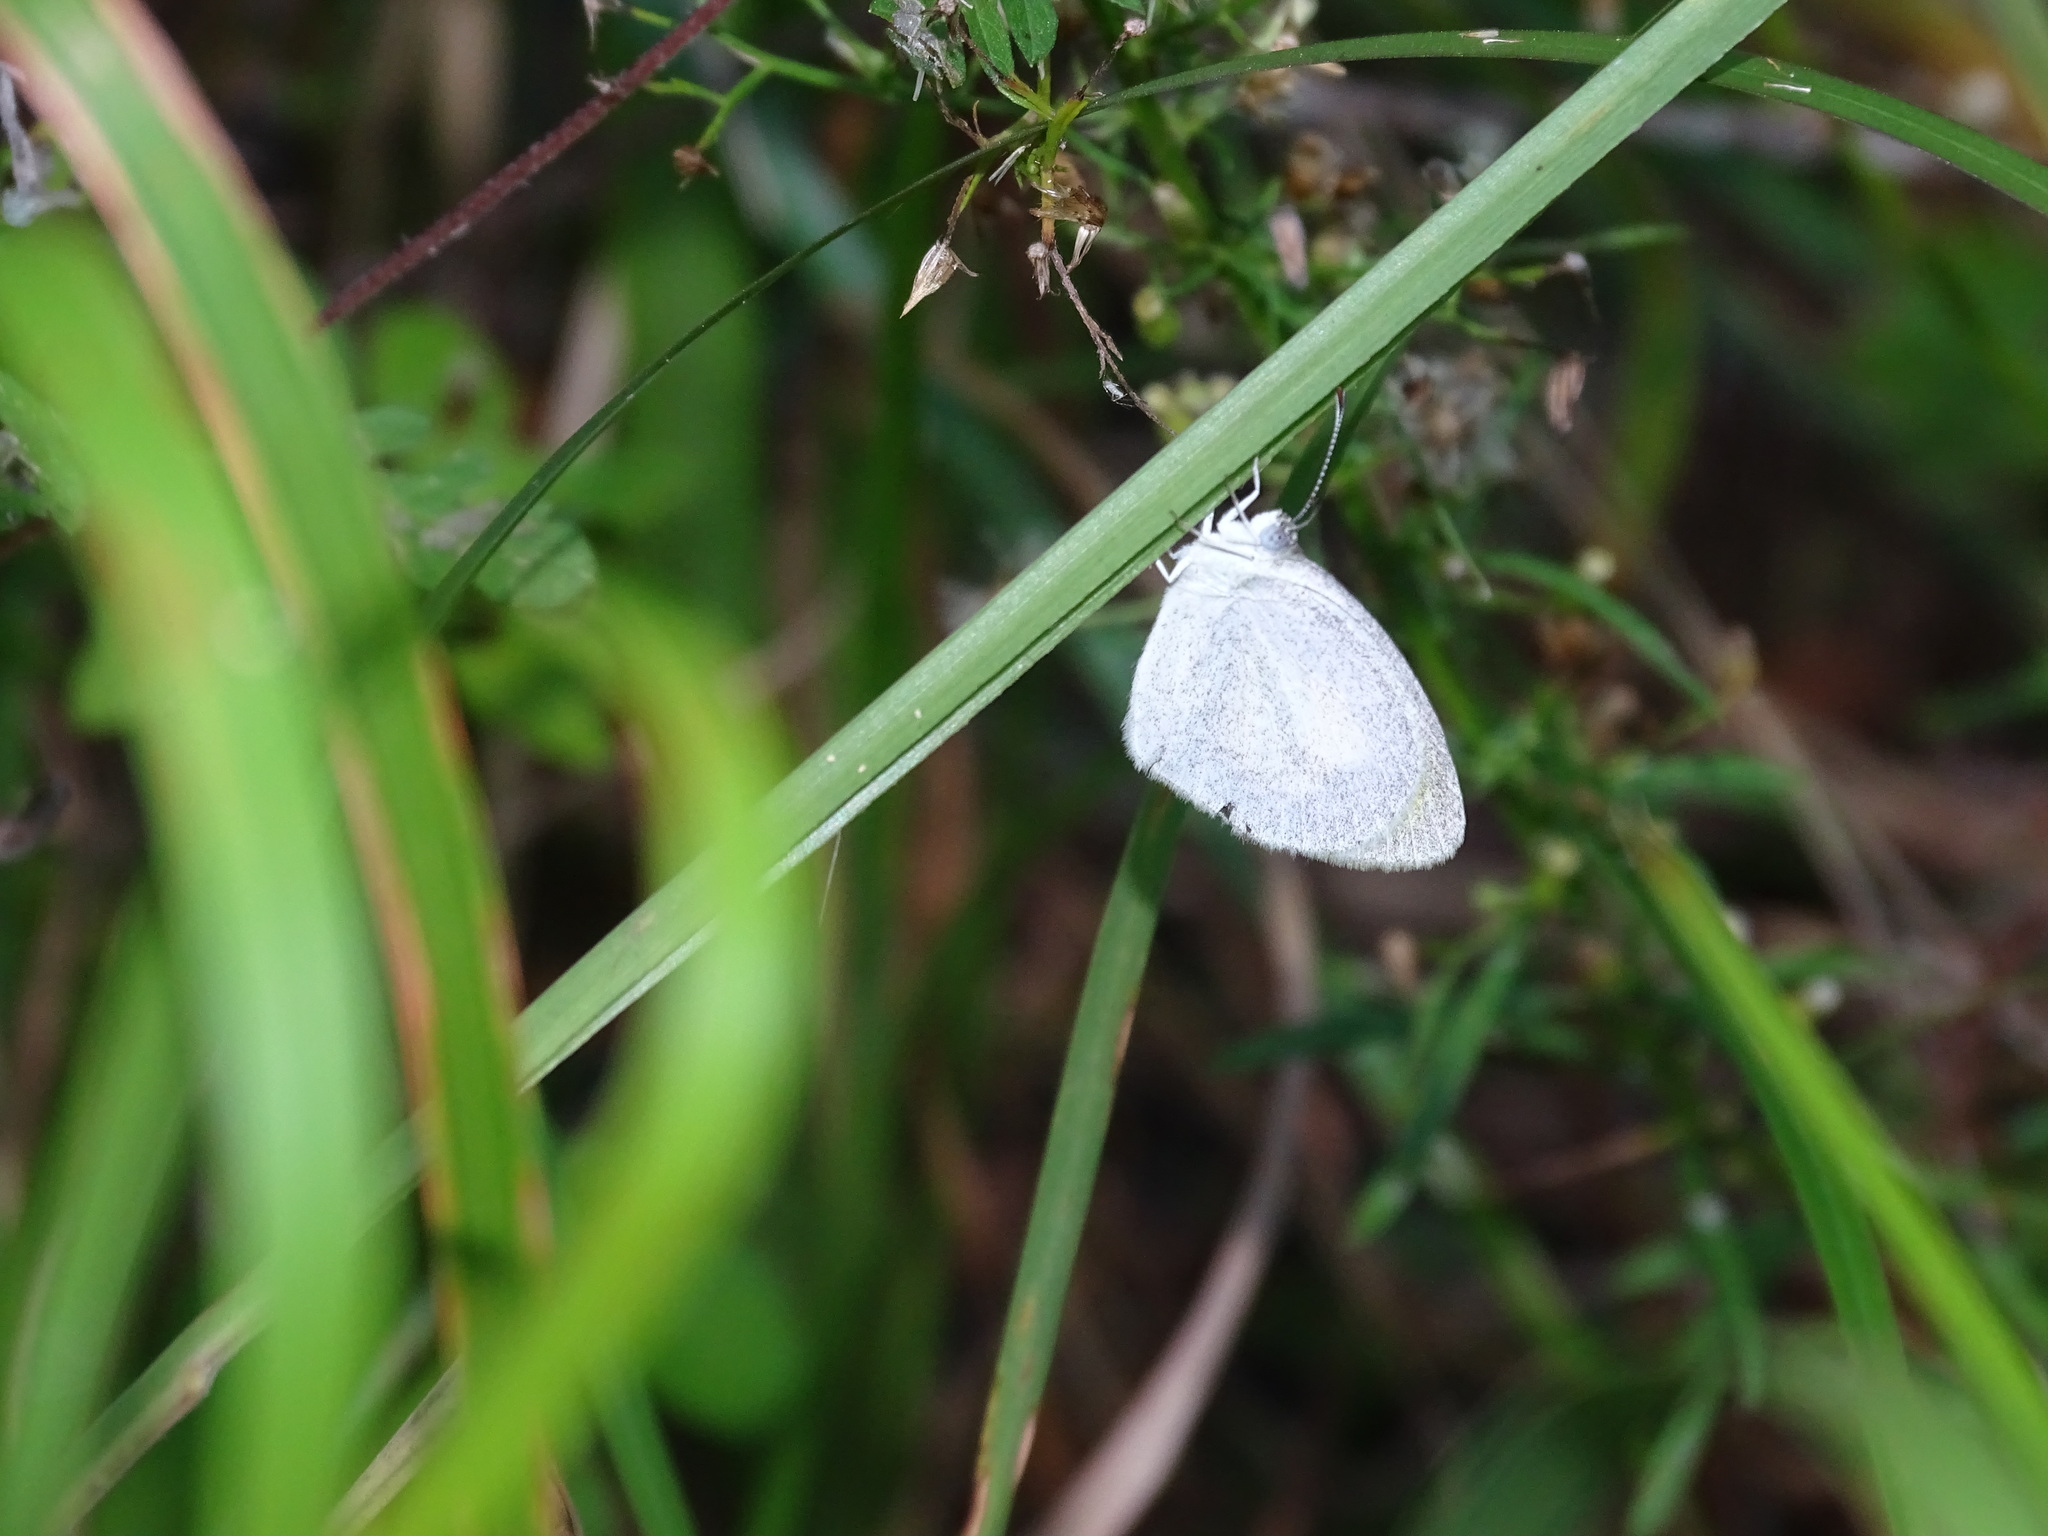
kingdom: Animalia
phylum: Arthropoda
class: Insecta
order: Lepidoptera
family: Pieridae
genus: Eurema
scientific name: Eurema daira
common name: Barred sulphur
